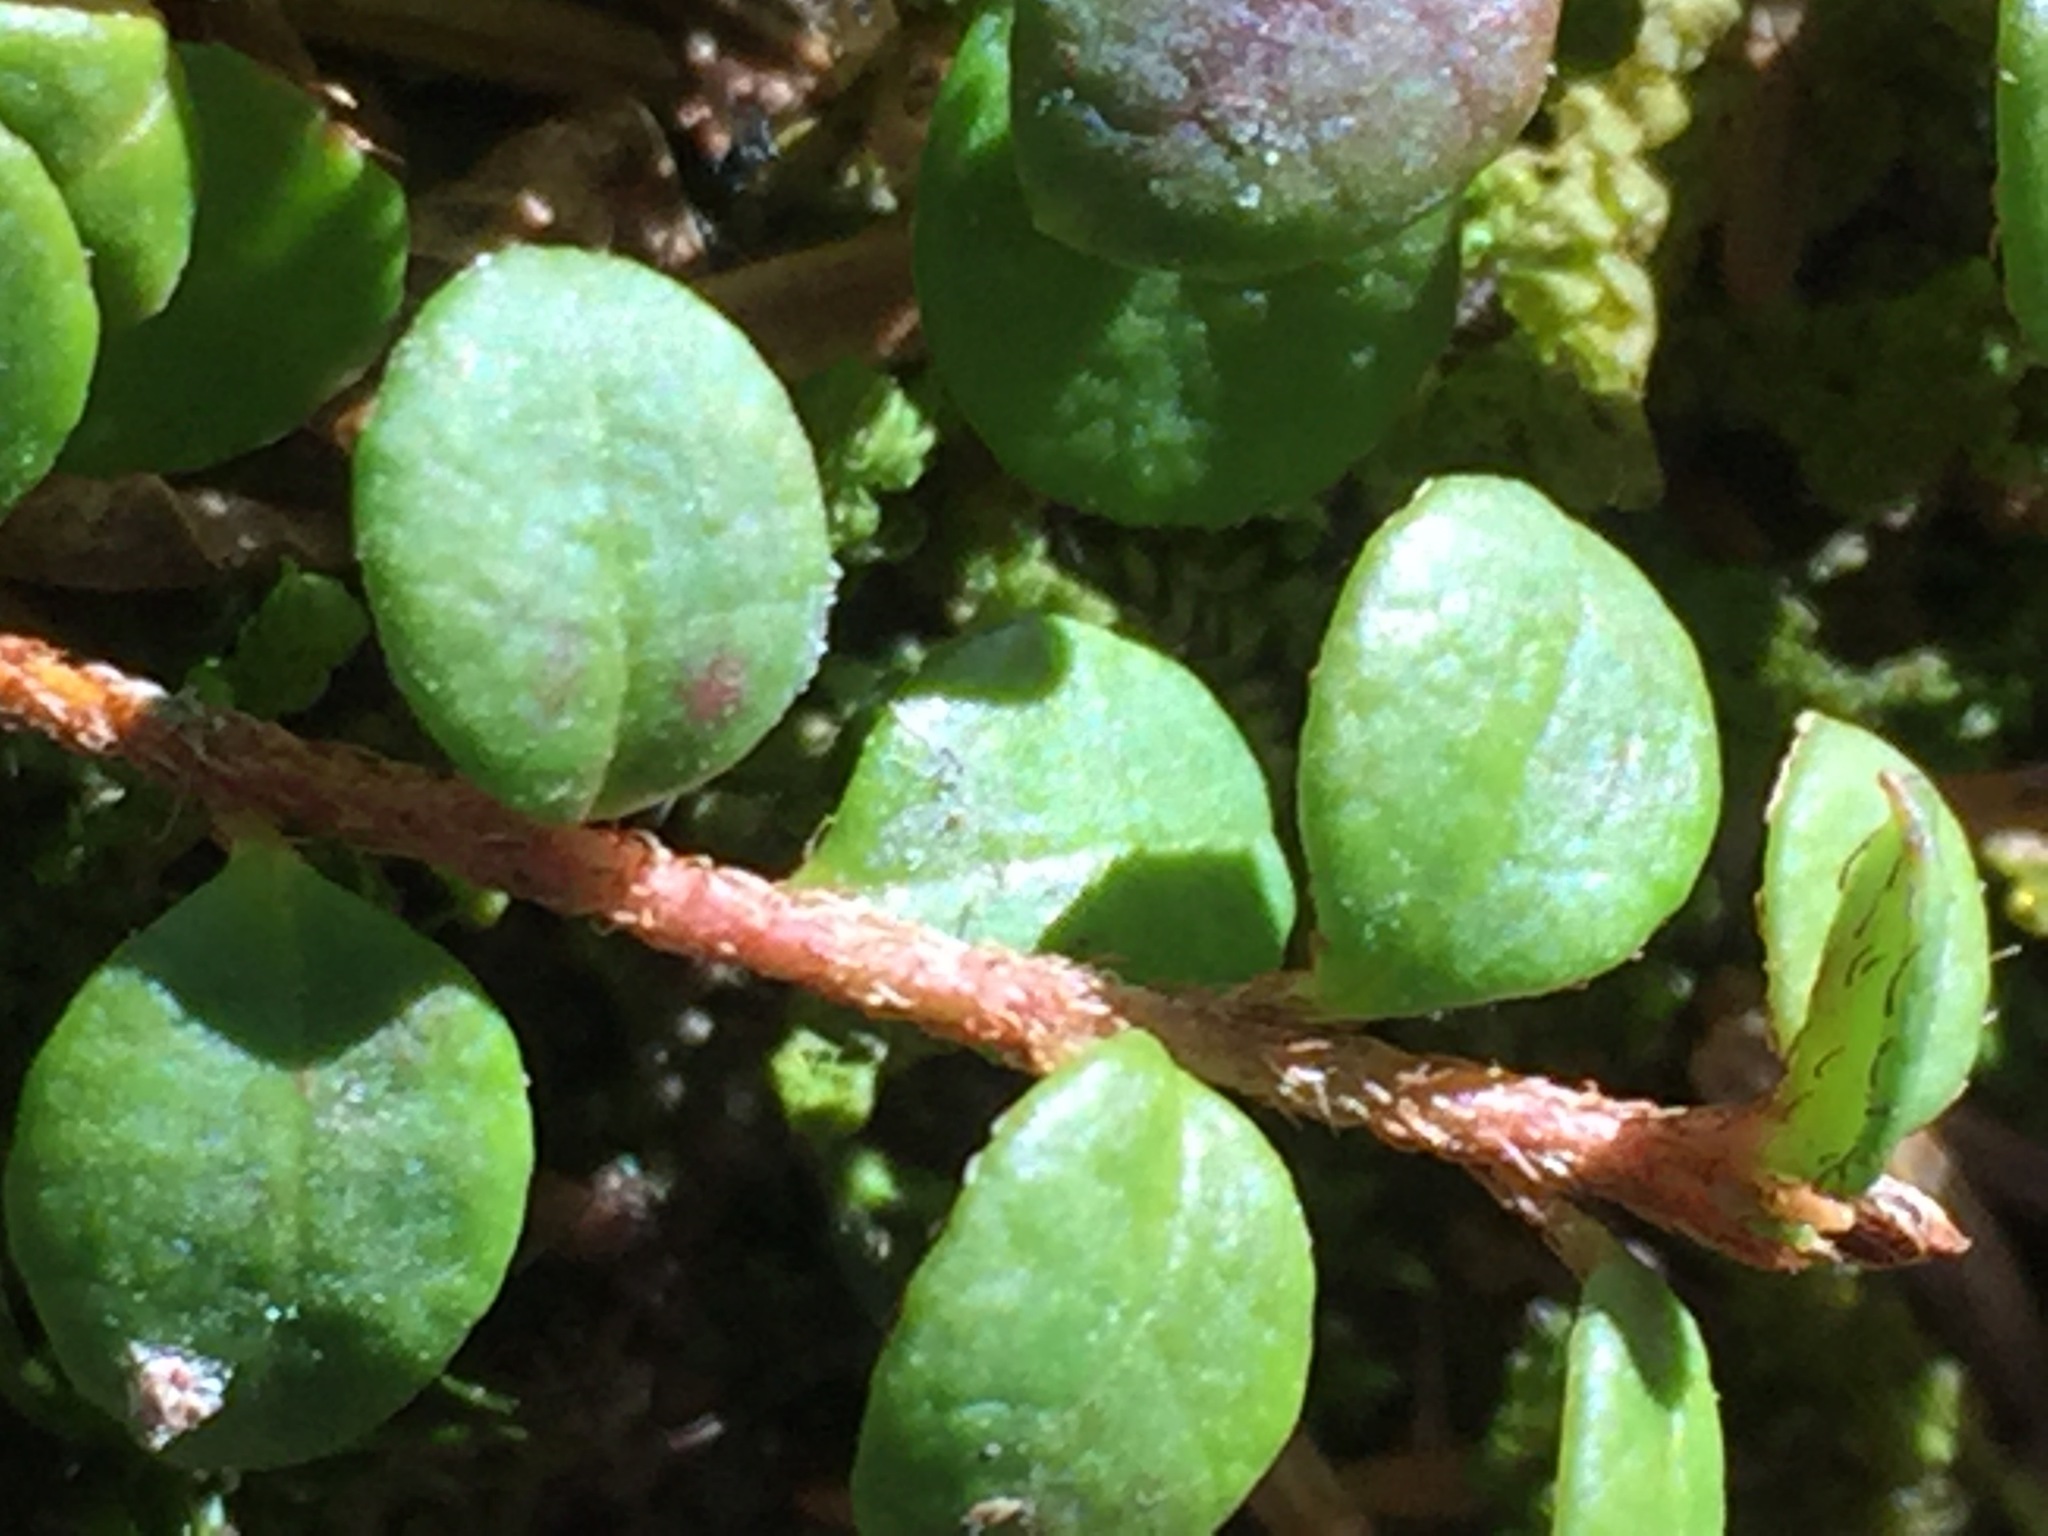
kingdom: Plantae
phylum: Tracheophyta
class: Magnoliopsida
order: Ericales
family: Ericaceae
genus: Gaultheria
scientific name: Gaultheria hispidula
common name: Cancer wintergreen
